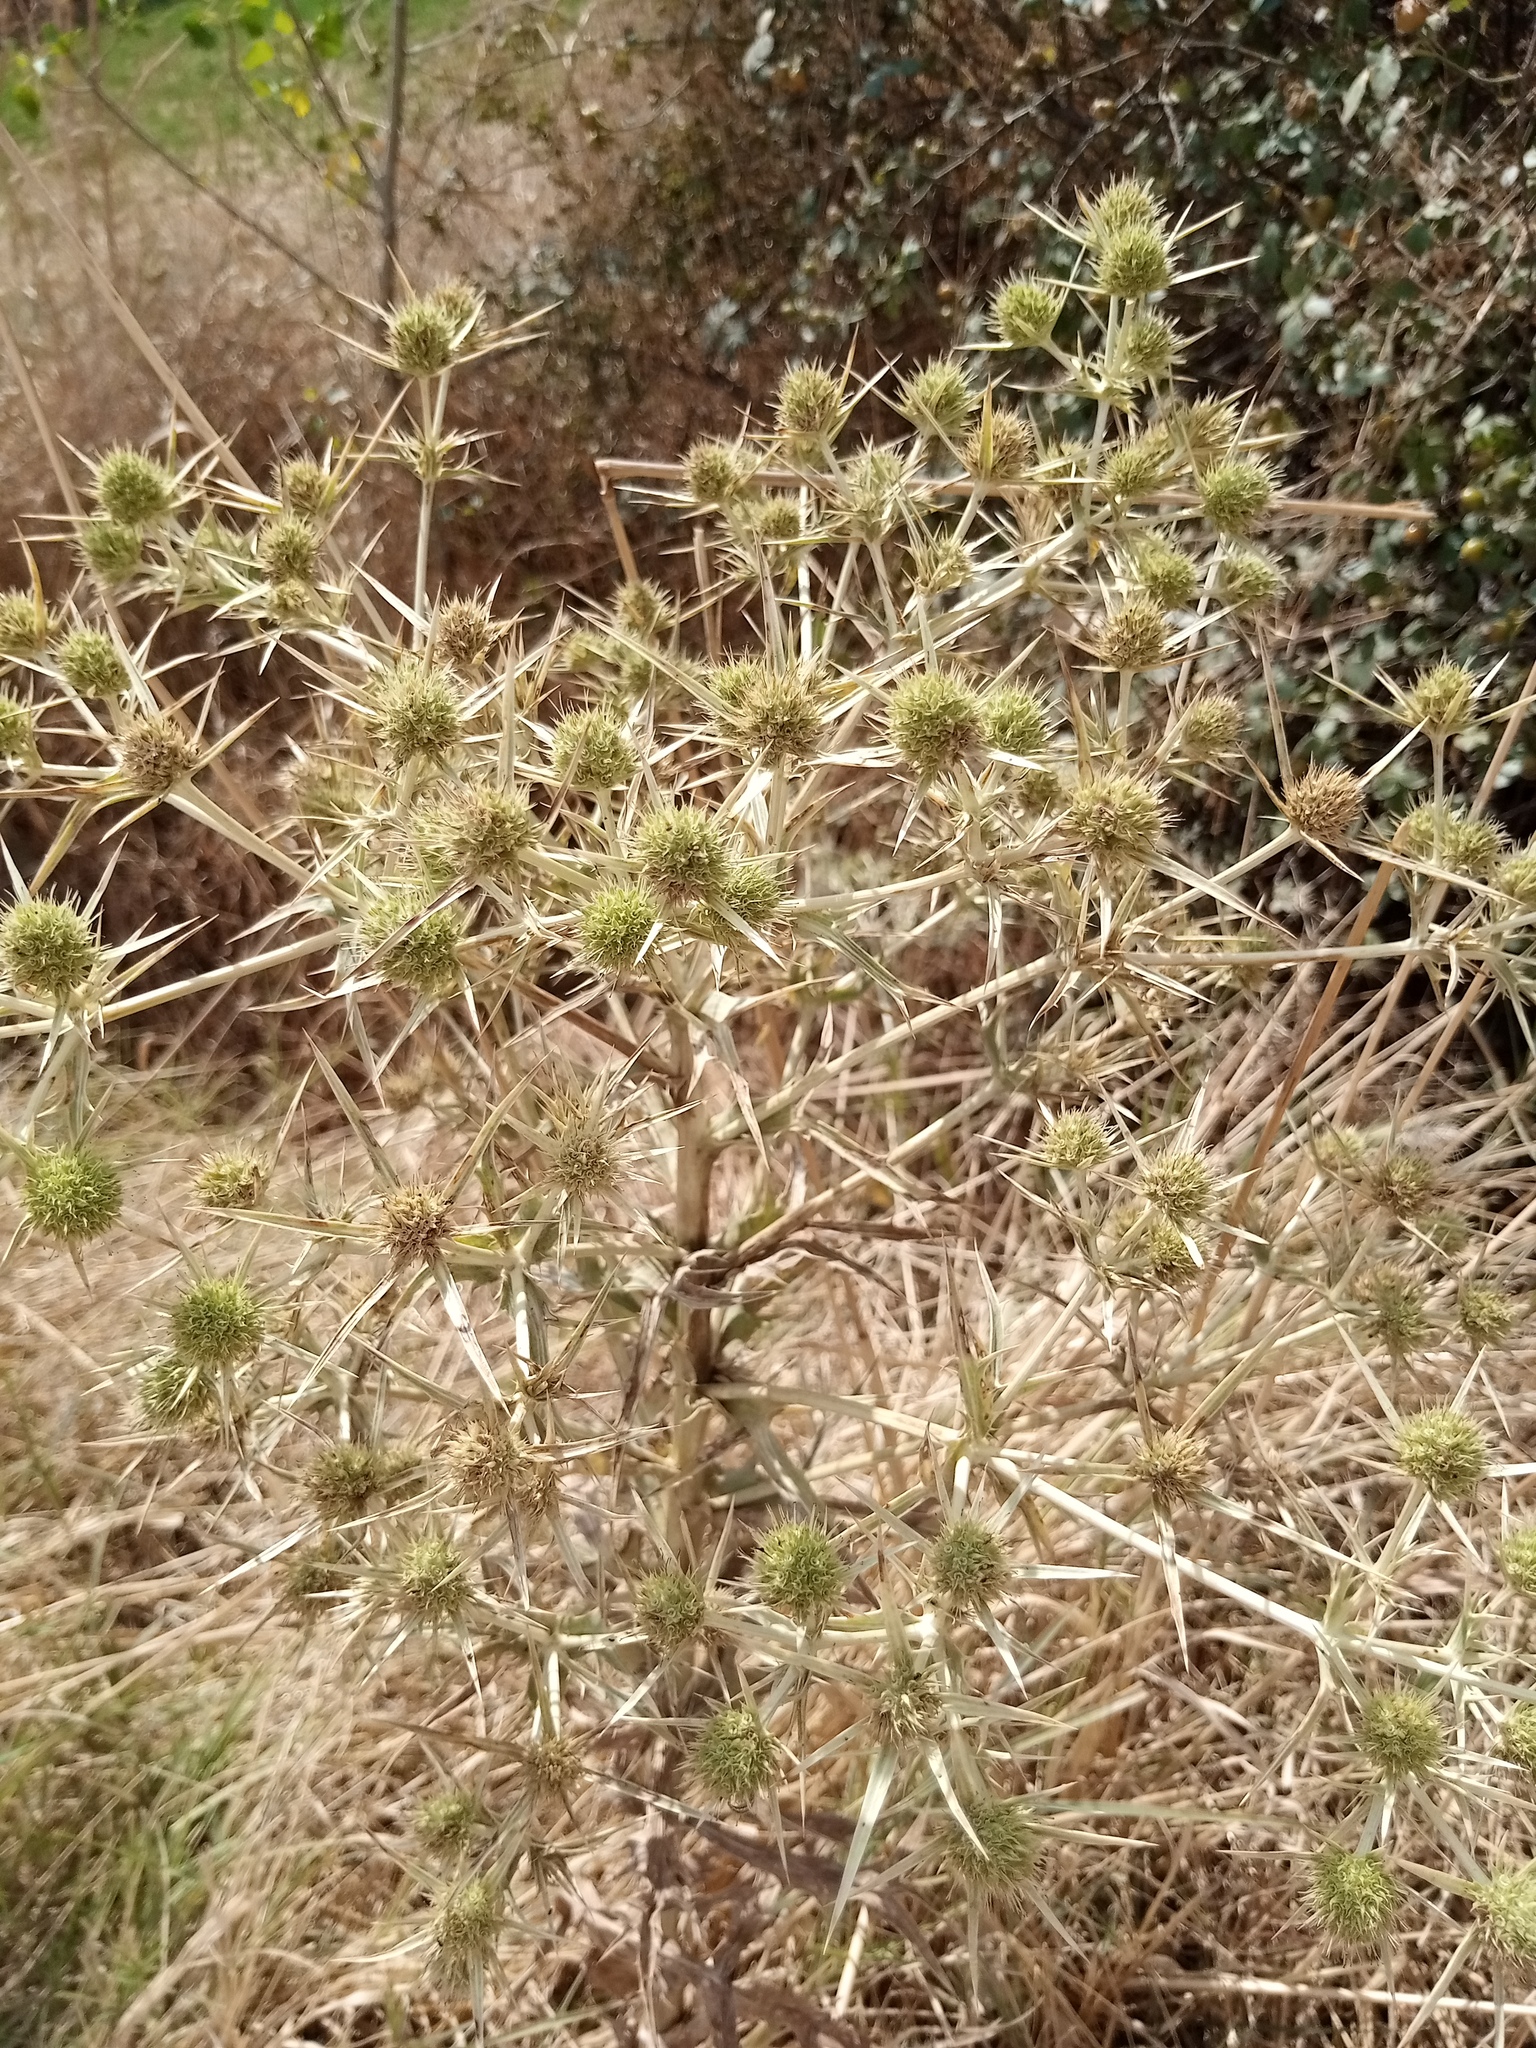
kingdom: Plantae
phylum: Tracheophyta
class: Magnoliopsida
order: Apiales
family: Apiaceae
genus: Eryngium
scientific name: Eryngium campestre
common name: Field eryngo
